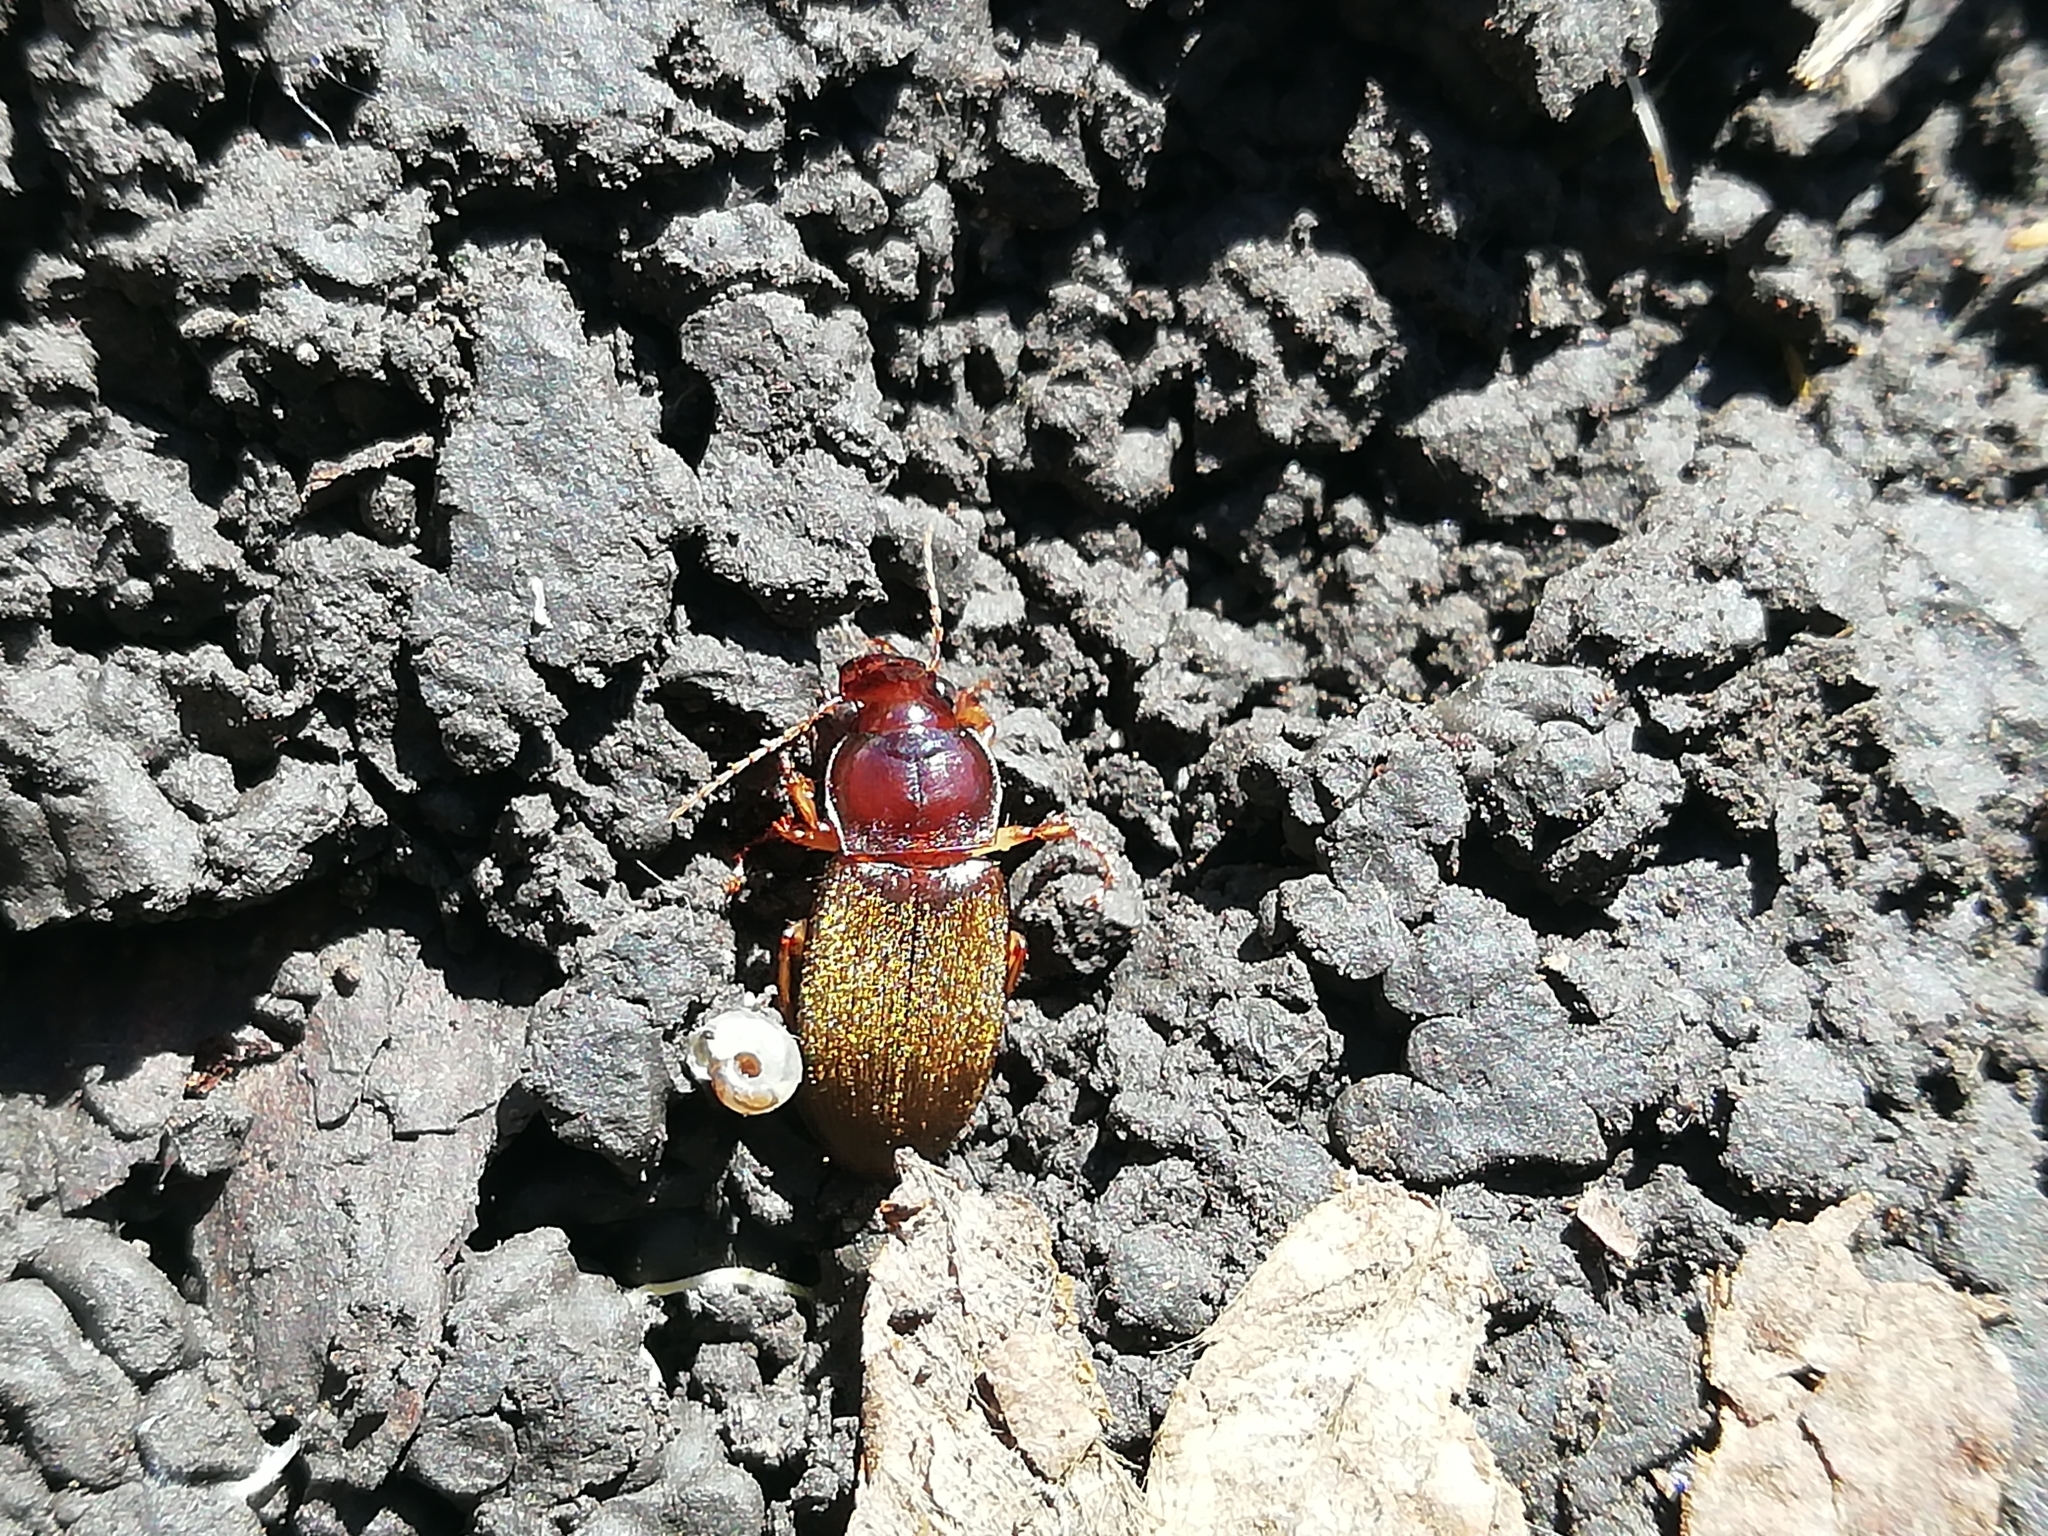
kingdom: Animalia
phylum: Arthropoda
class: Insecta
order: Coleoptera
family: Carabidae
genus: Harpalus
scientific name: Harpalus rufipes
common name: Strawberry harp ground beetle
